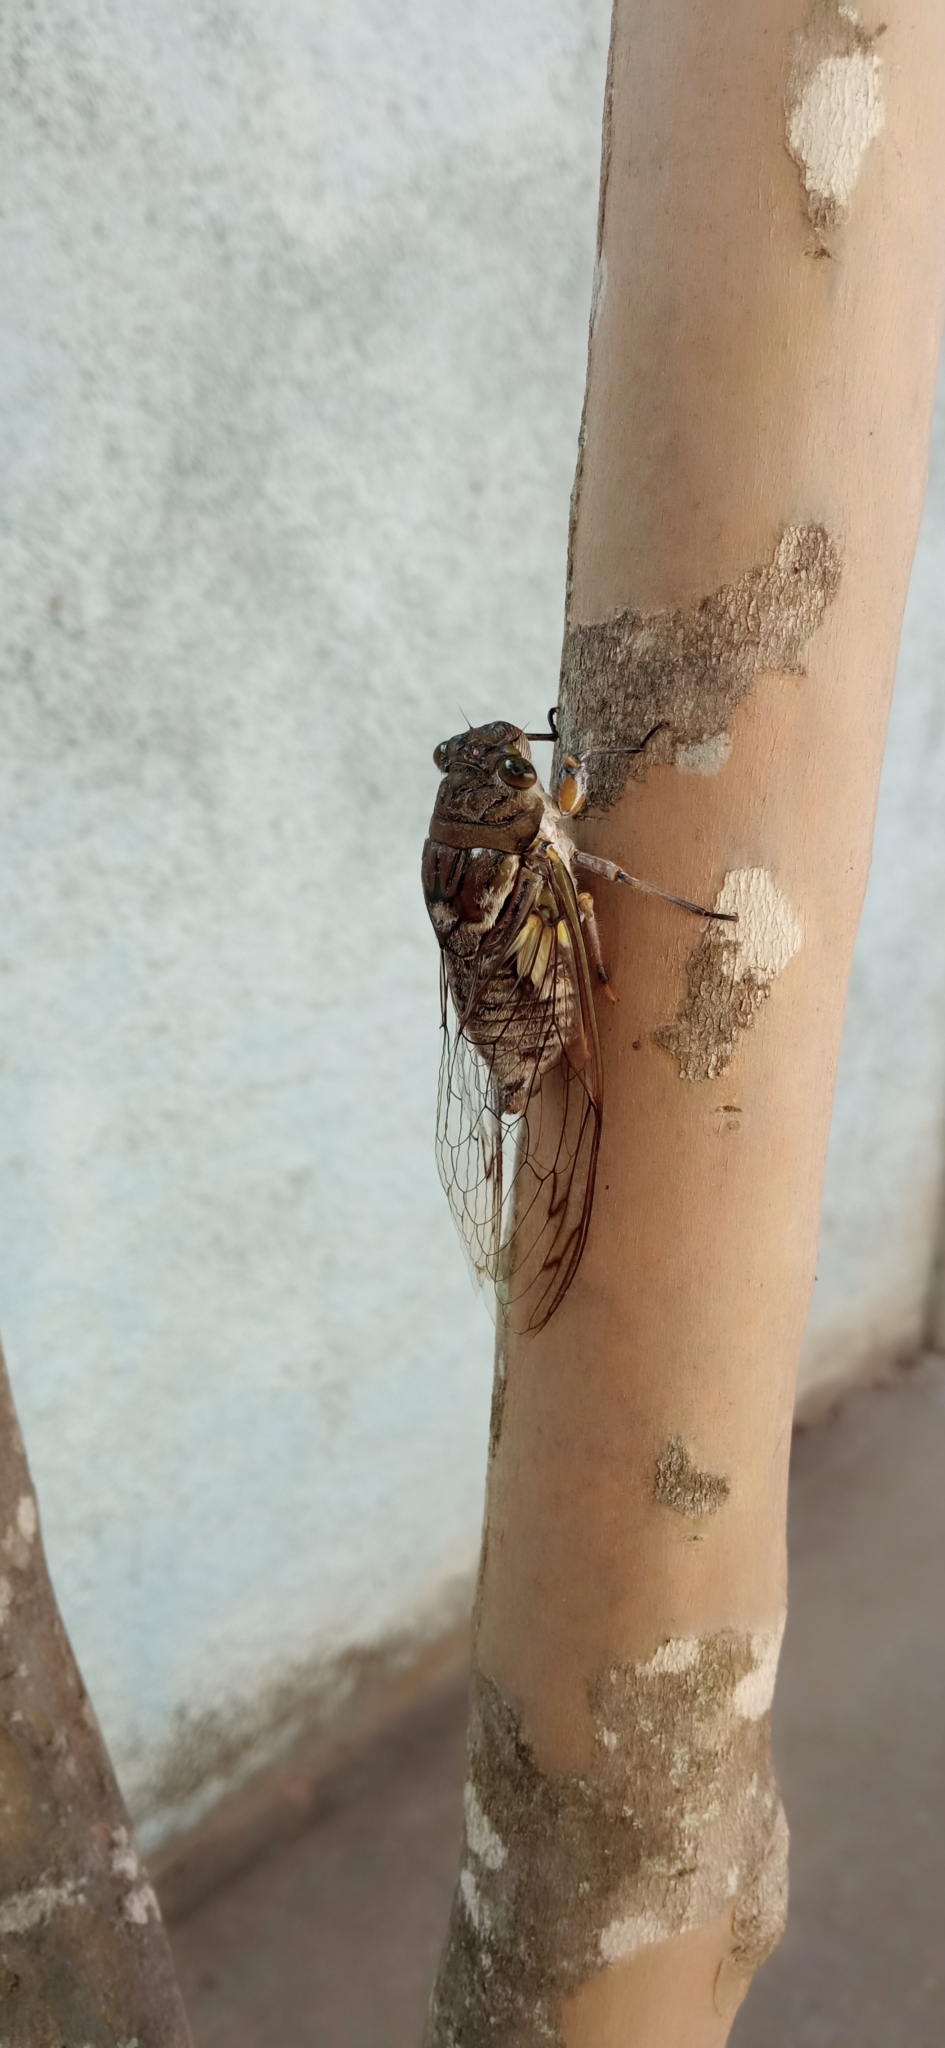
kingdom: Animalia
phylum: Arthropoda
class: Insecta
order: Hemiptera
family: Cicadidae
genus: Quesada
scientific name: Quesada gigas
